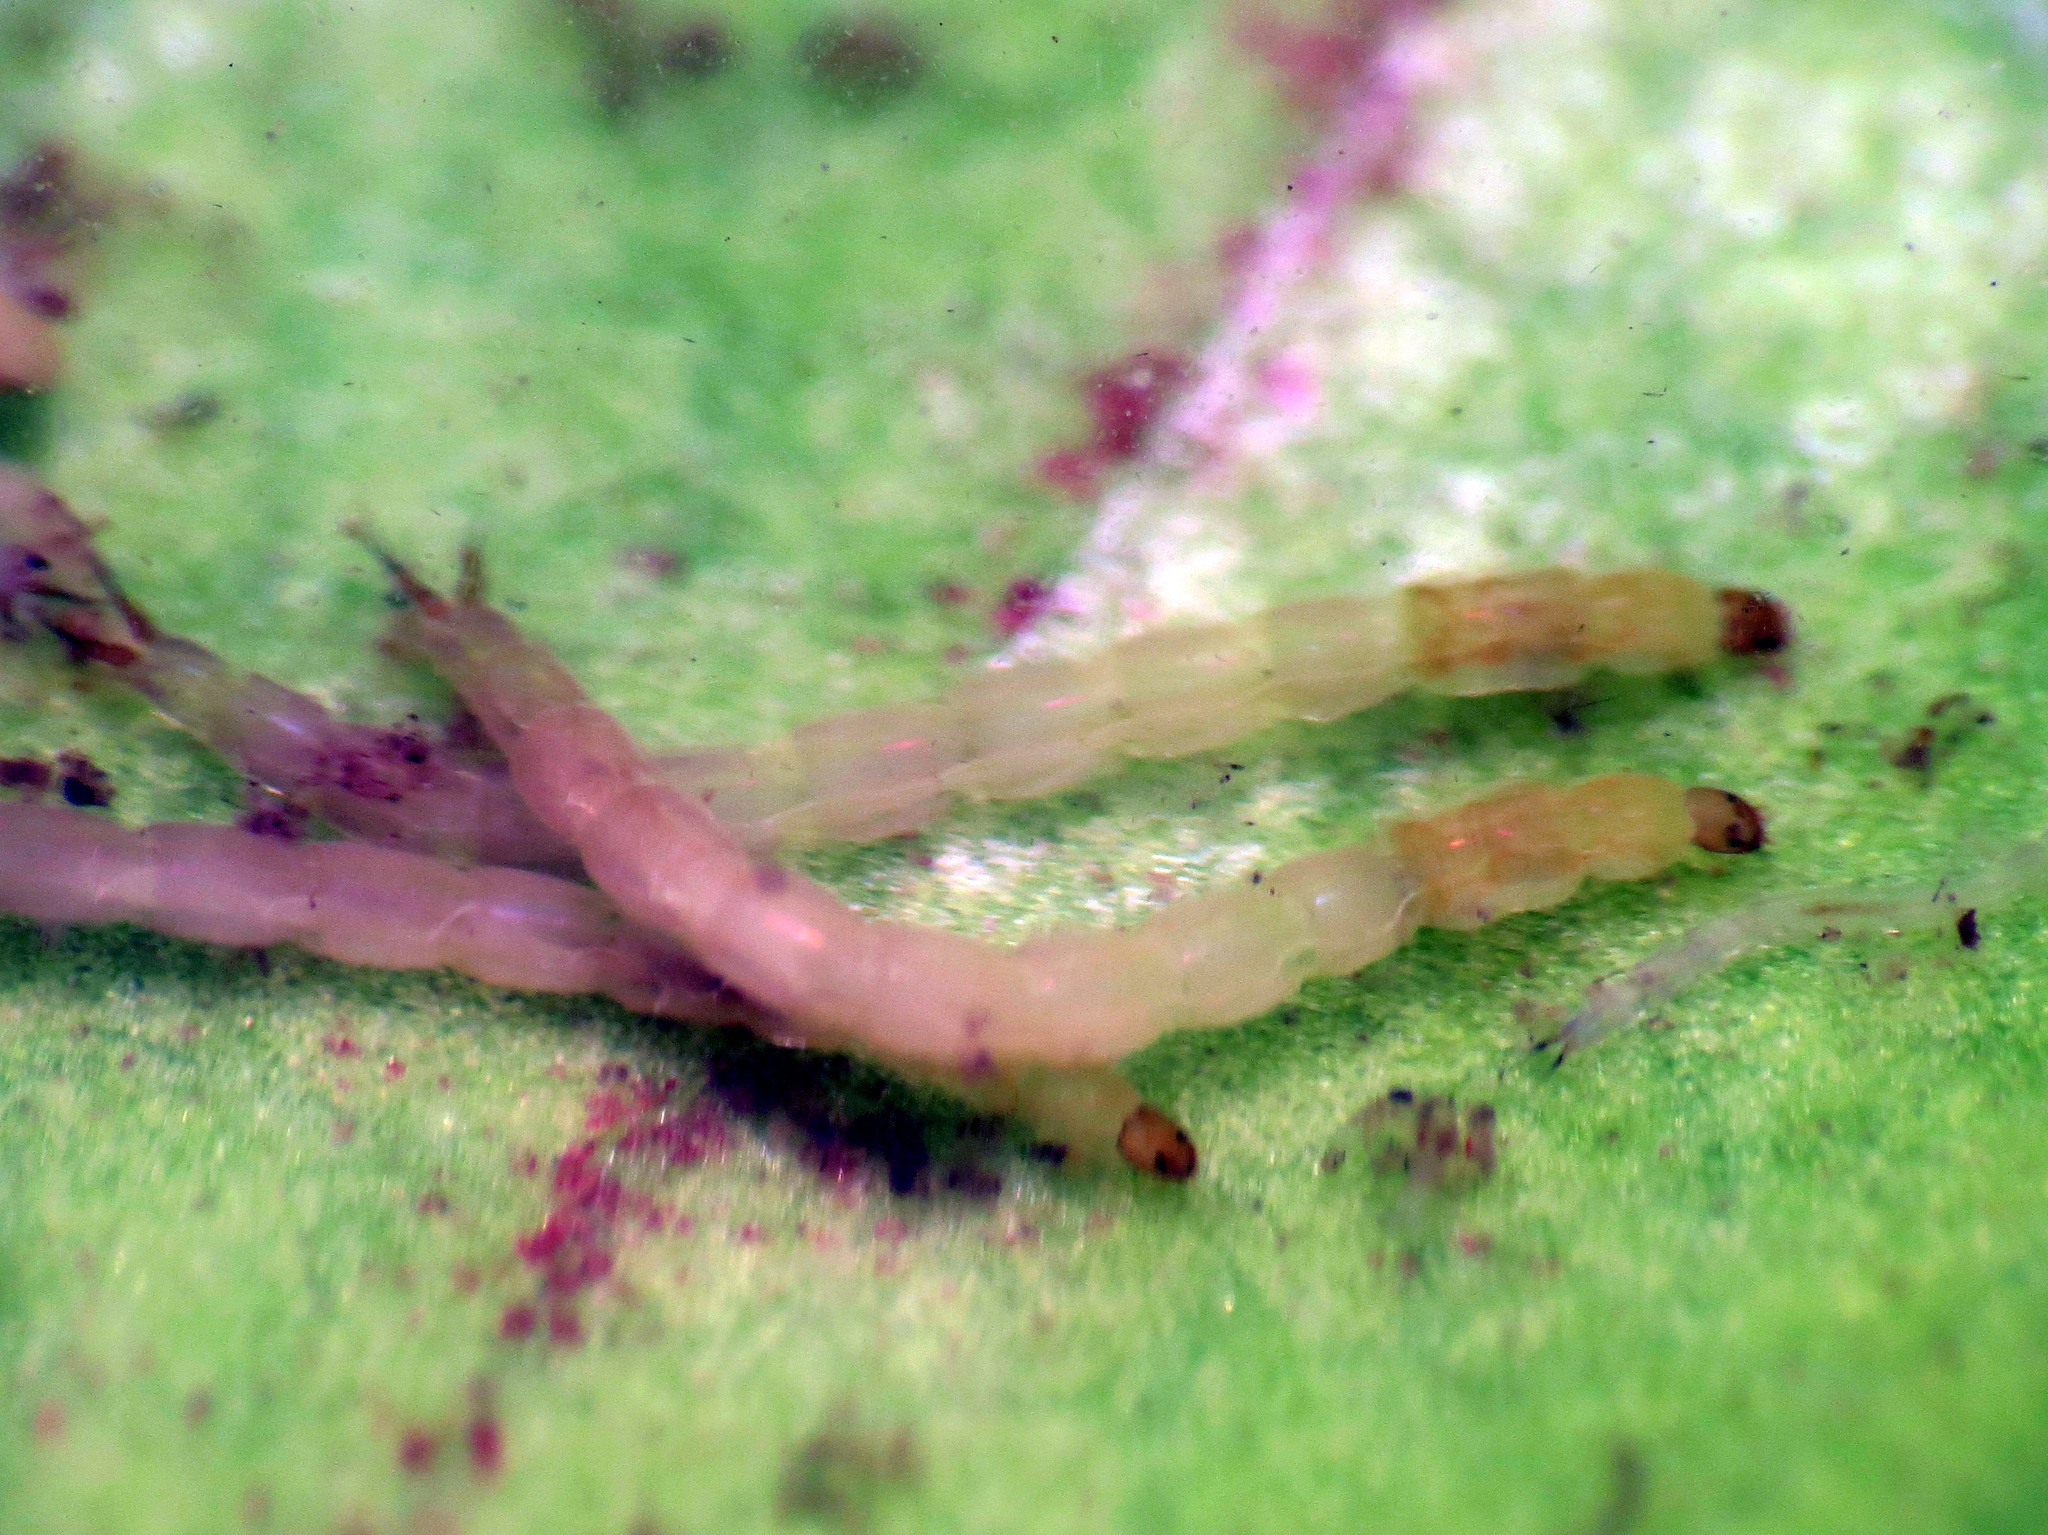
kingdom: Animalia
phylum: Arthropoda
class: Insecta
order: Diptera
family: Chironomidae
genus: Metriocnemus
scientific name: Metriocnemus knabi
